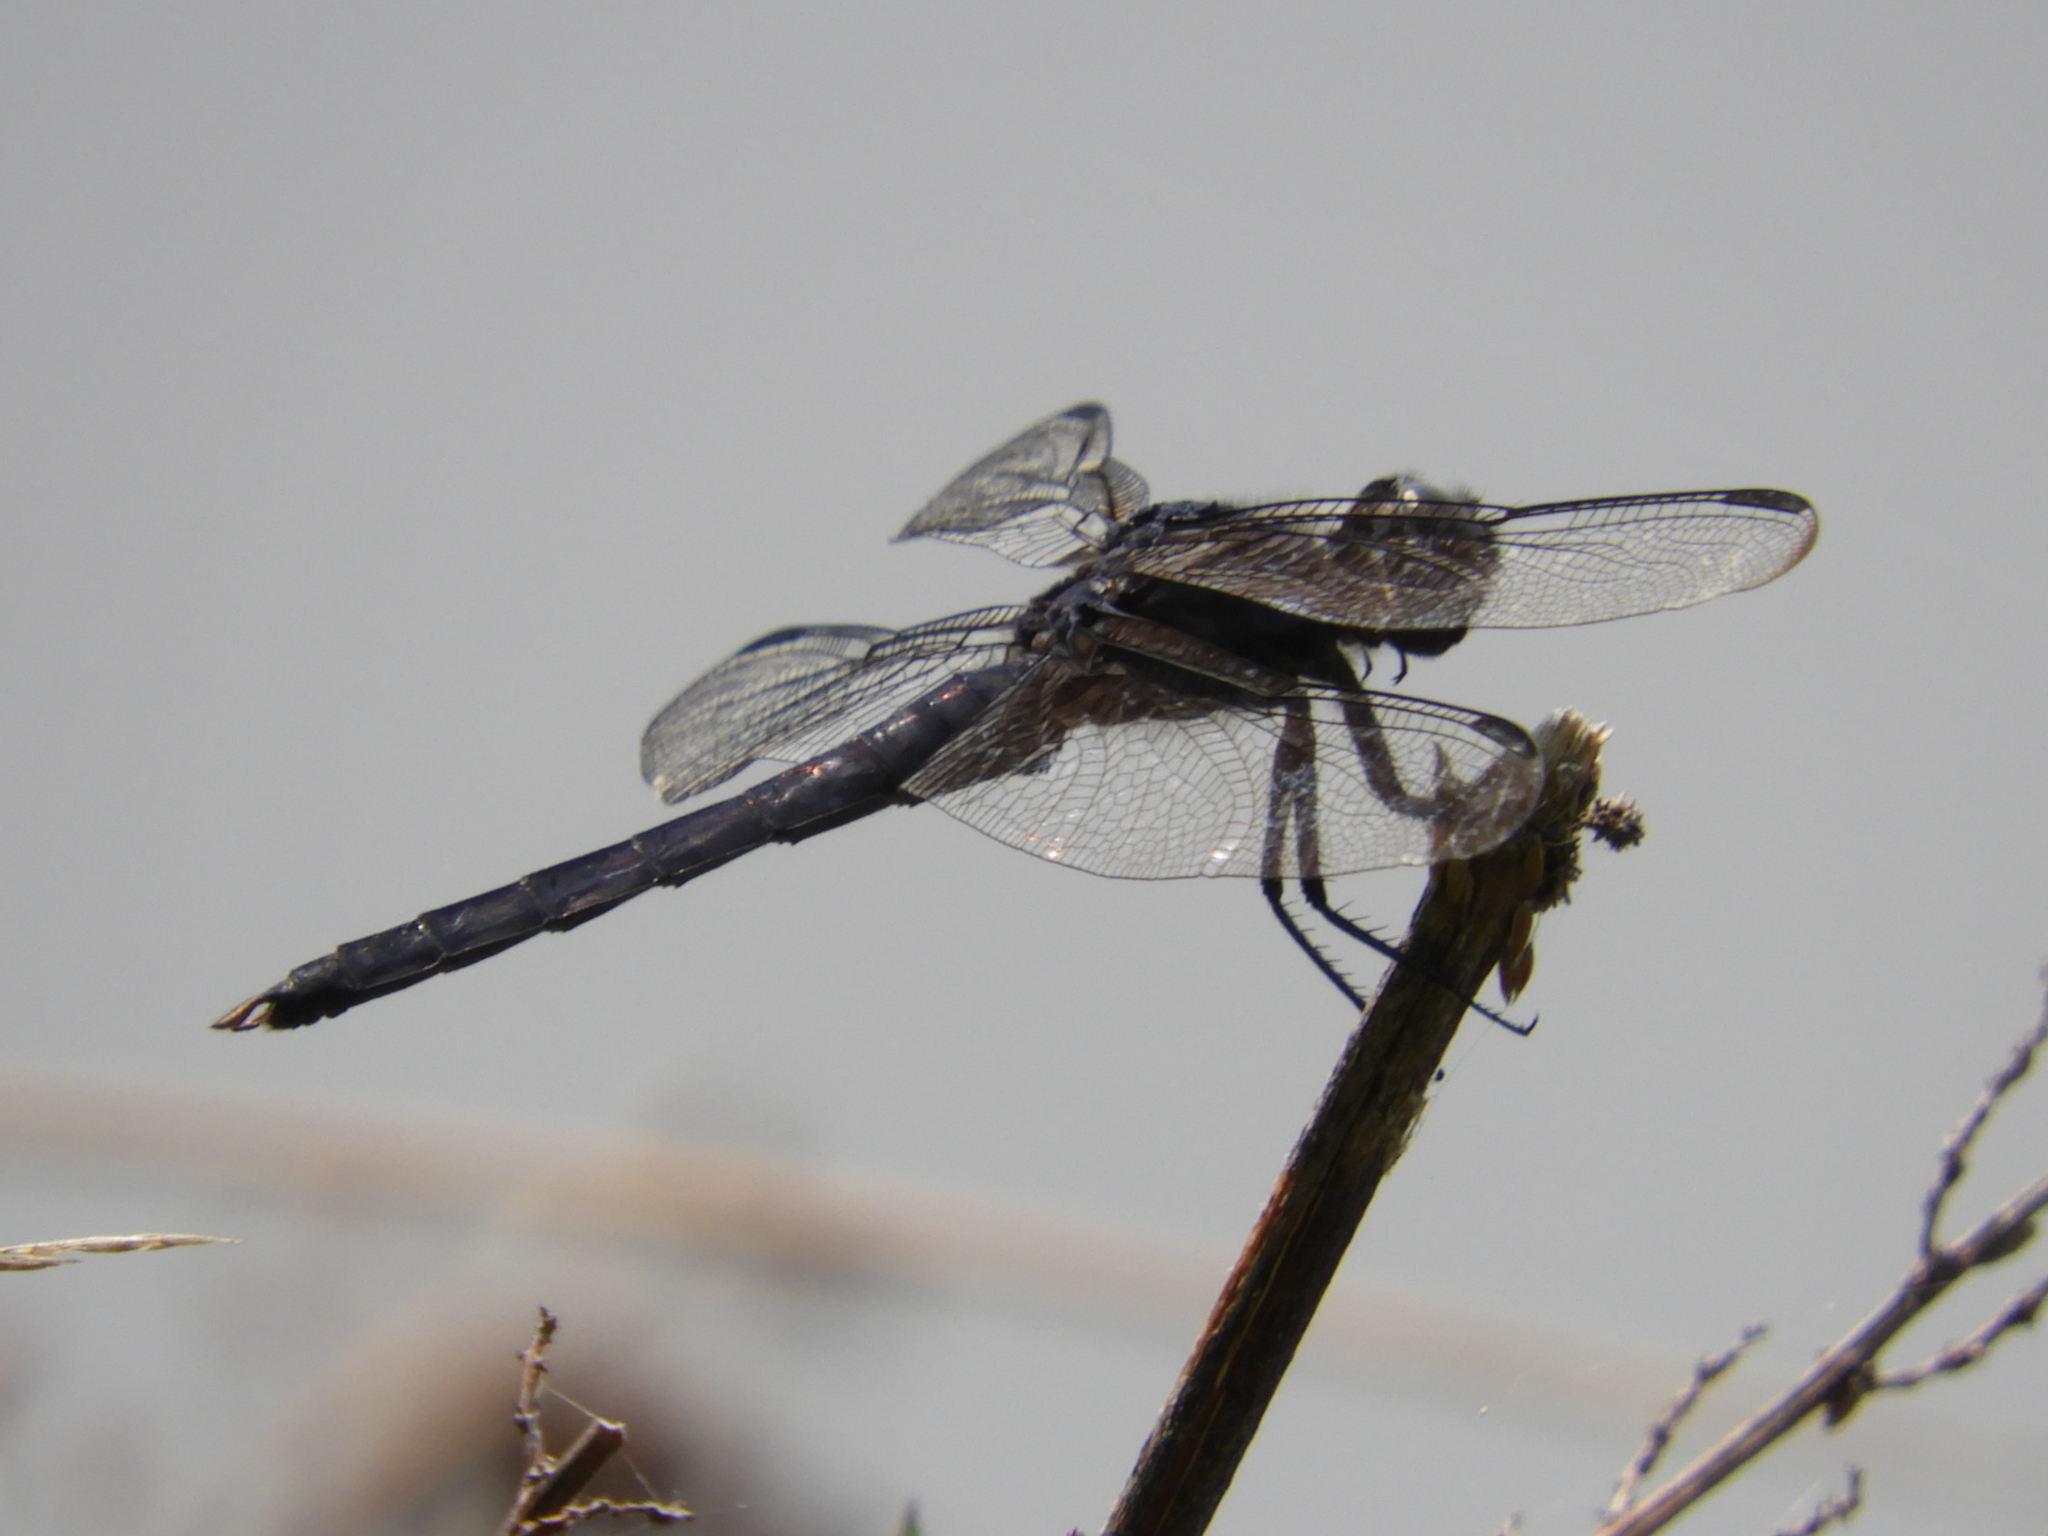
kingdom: Animalia
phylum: Arthropoda
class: Insecta
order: Odonata
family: Libellulidae
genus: Libellula
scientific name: Libellula incesta
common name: Slaty skimmer
